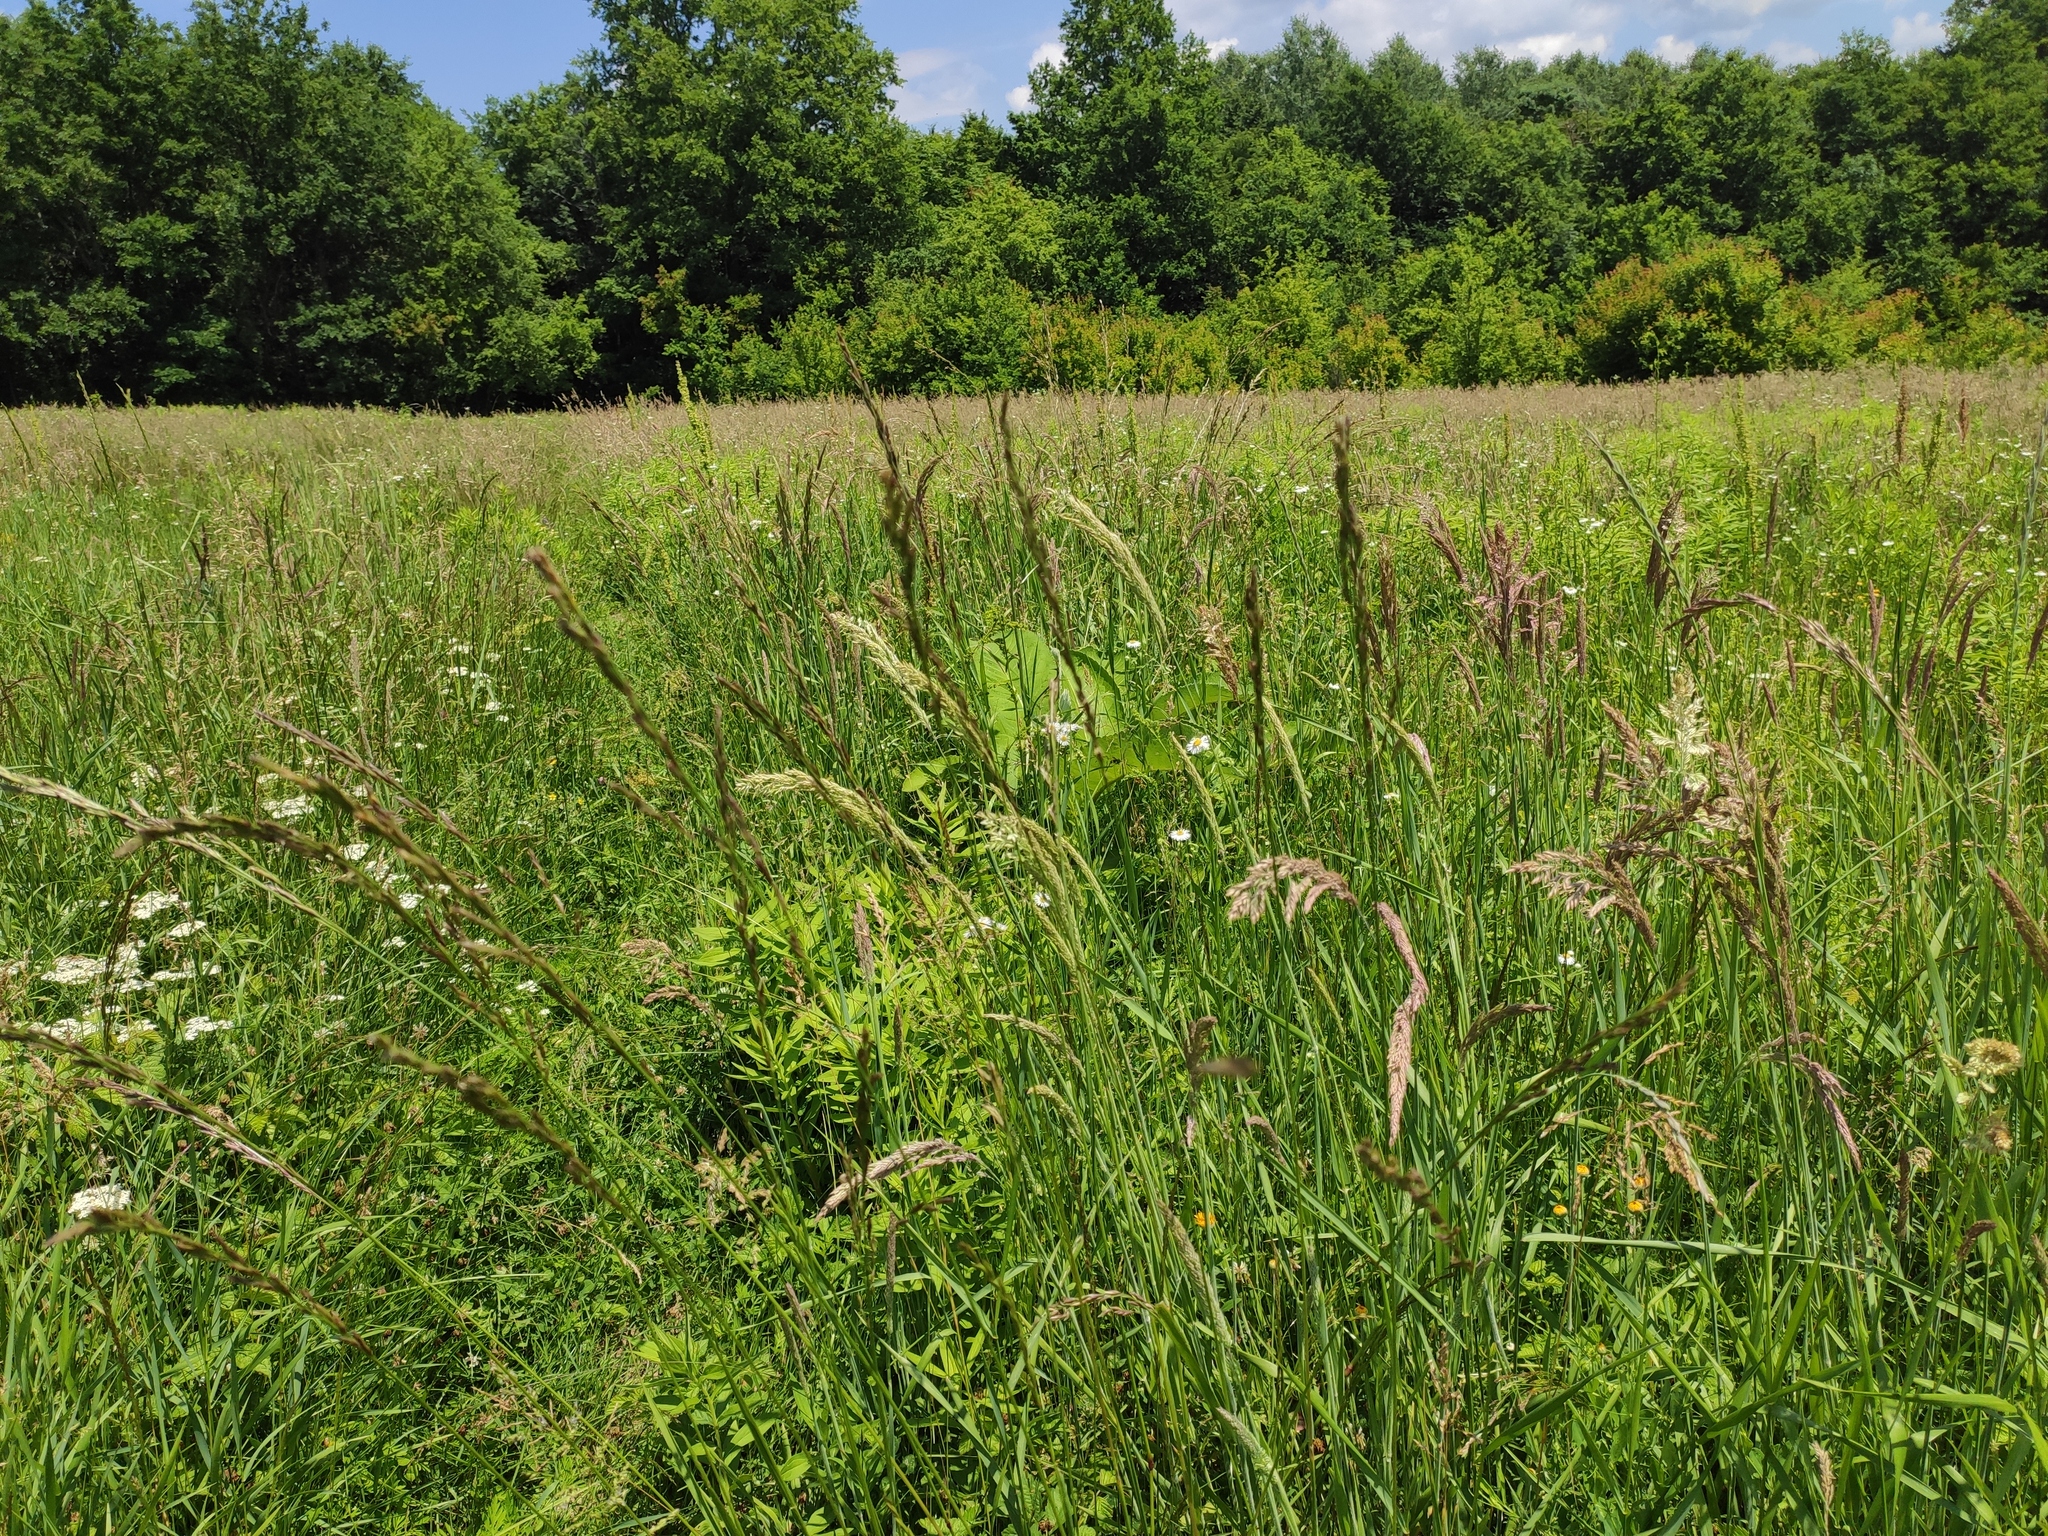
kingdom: Plantae
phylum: Tracheophyta
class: Liliopsida
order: Poales
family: Poaceae
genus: Holcus
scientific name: Holcus lanatus
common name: Yorkshire-fog
